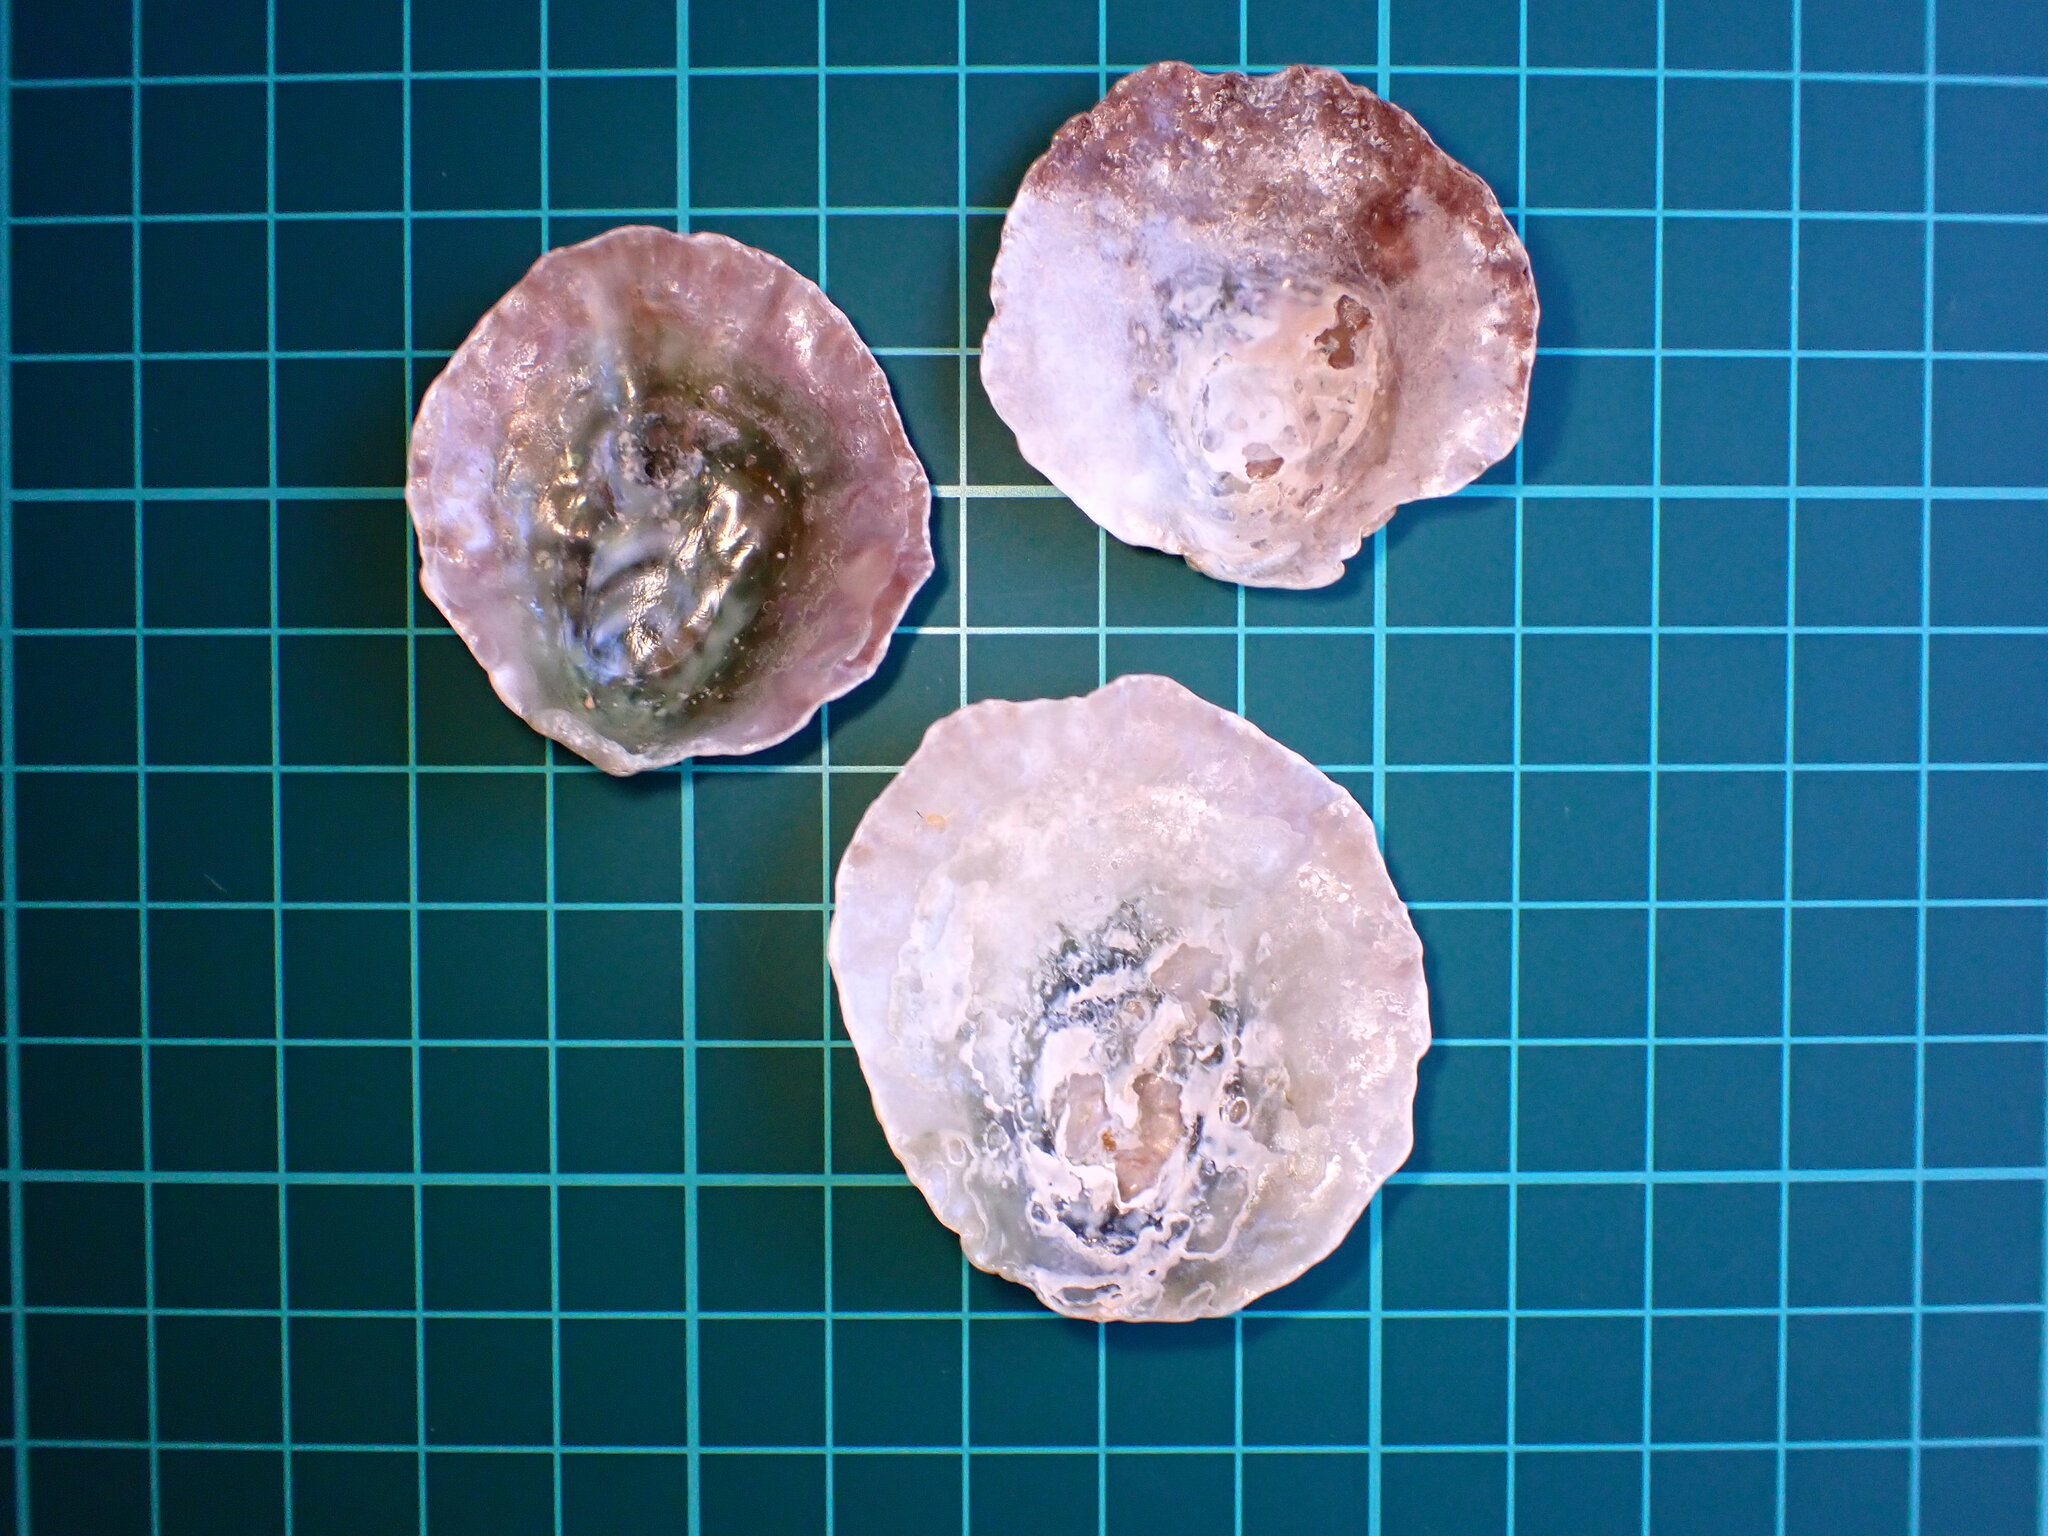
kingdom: Animalia
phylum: Mollusca
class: Bivalvia
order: Pectinida
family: Anomiidae
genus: Pododesmus
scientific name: Pododesmus macrochisma
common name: Alaska jingle
